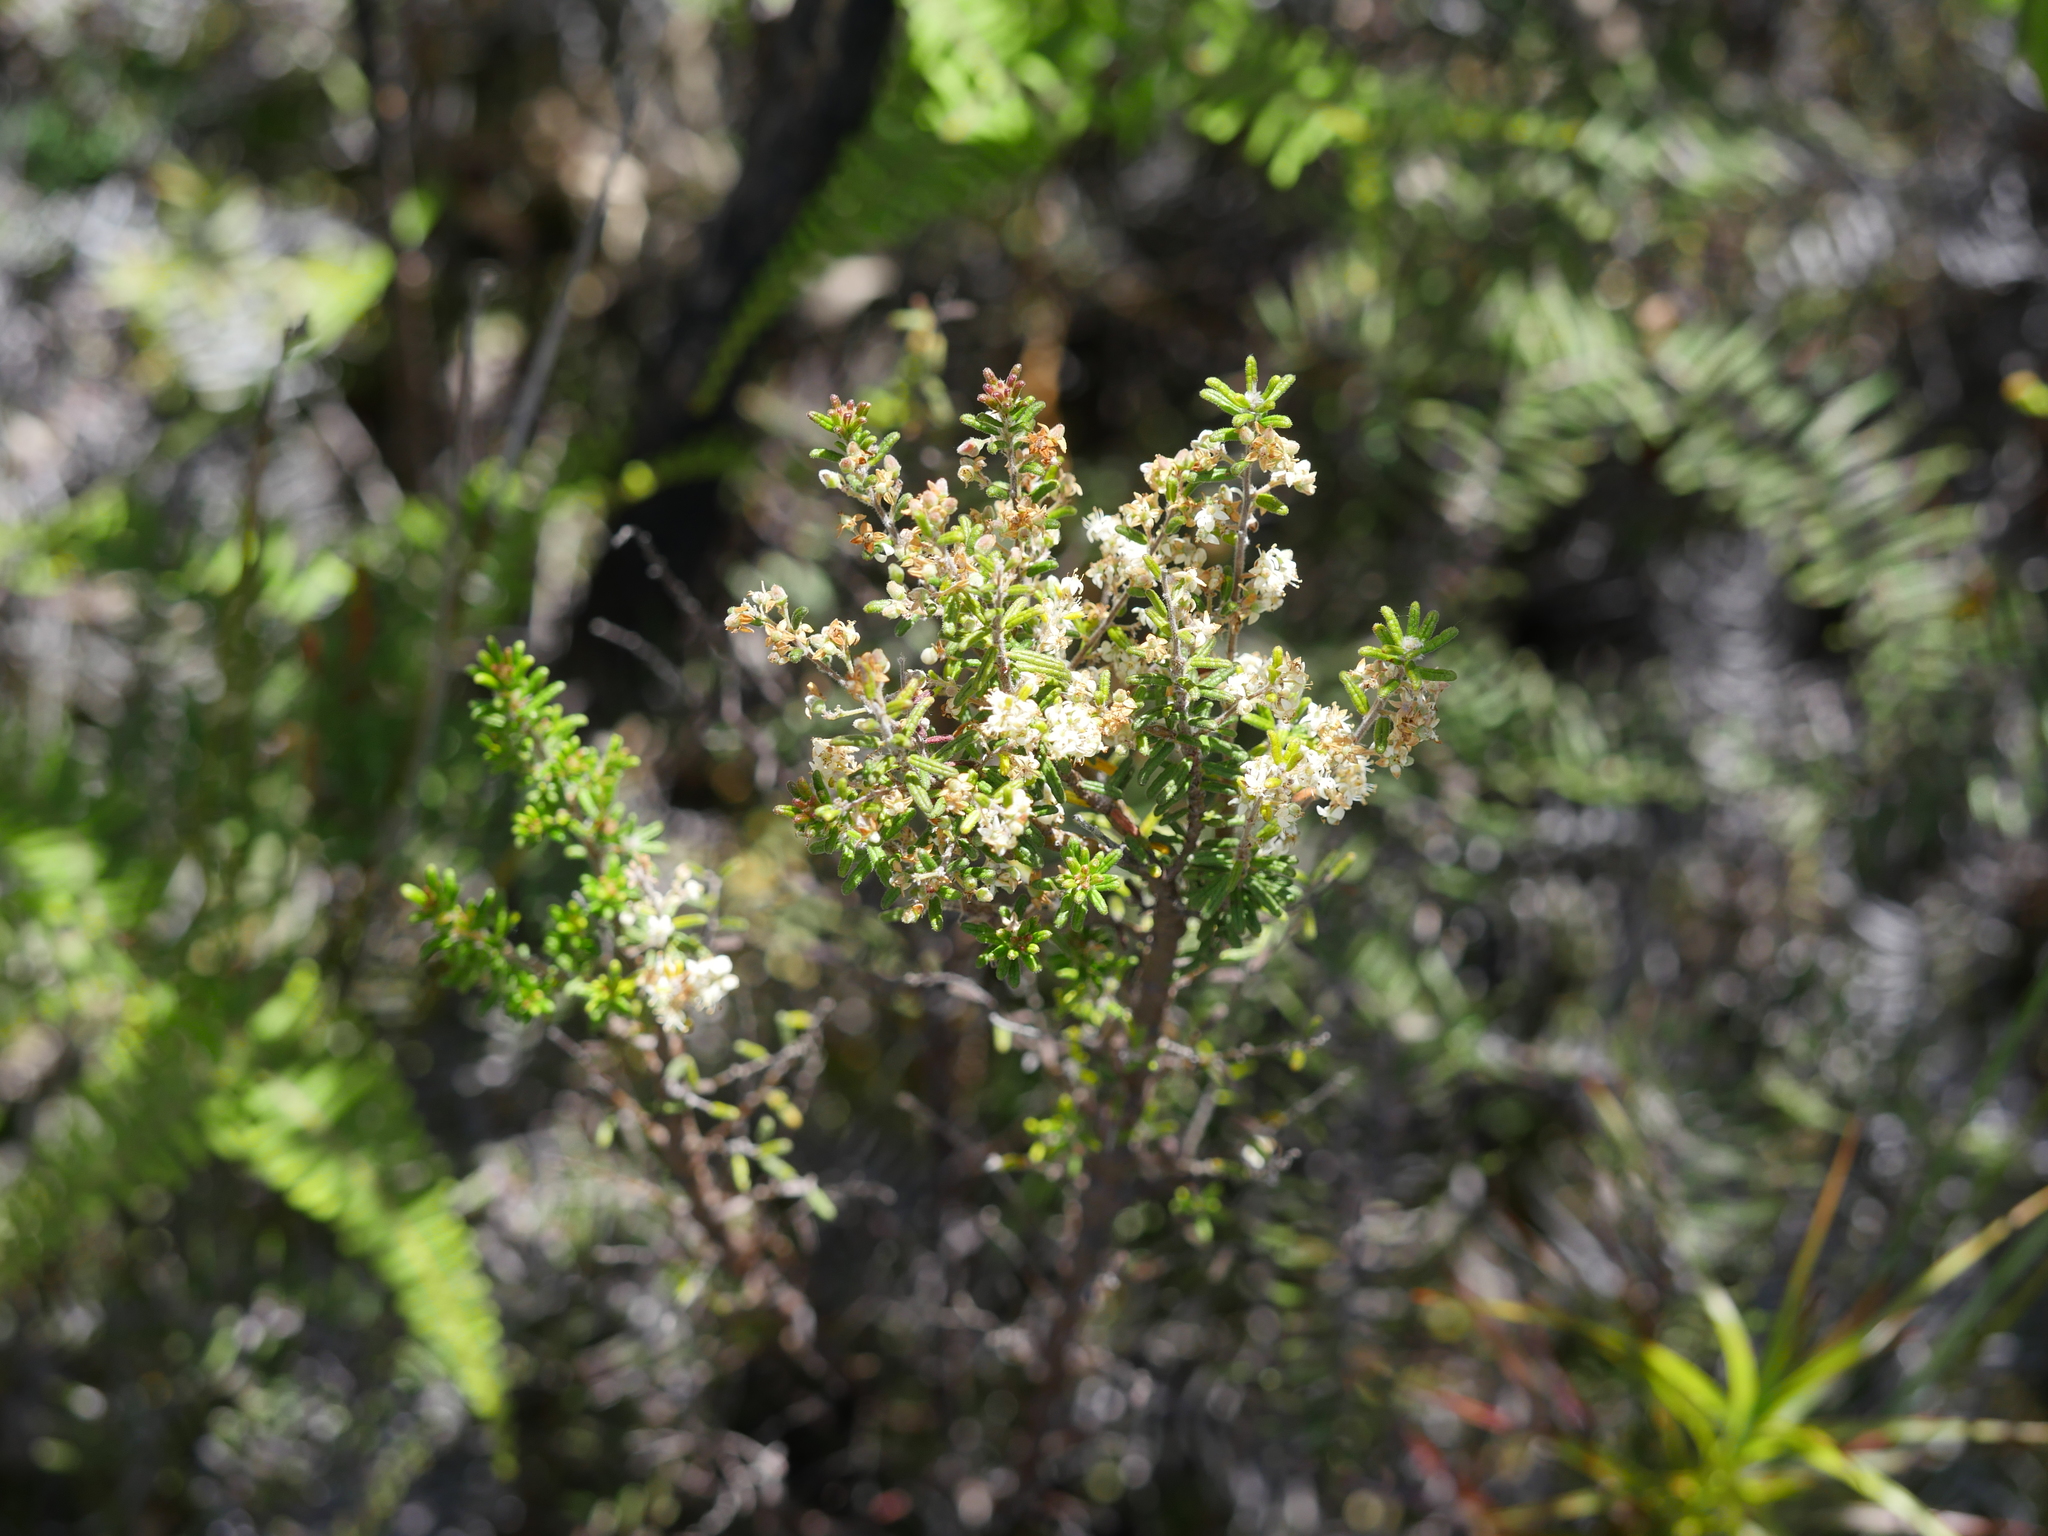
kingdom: Plantae
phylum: Tracheophyta
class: Magnoliopsida
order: Rosales
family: Rhamnaceae
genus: Pomaderris
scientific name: Pomaderris amoena
